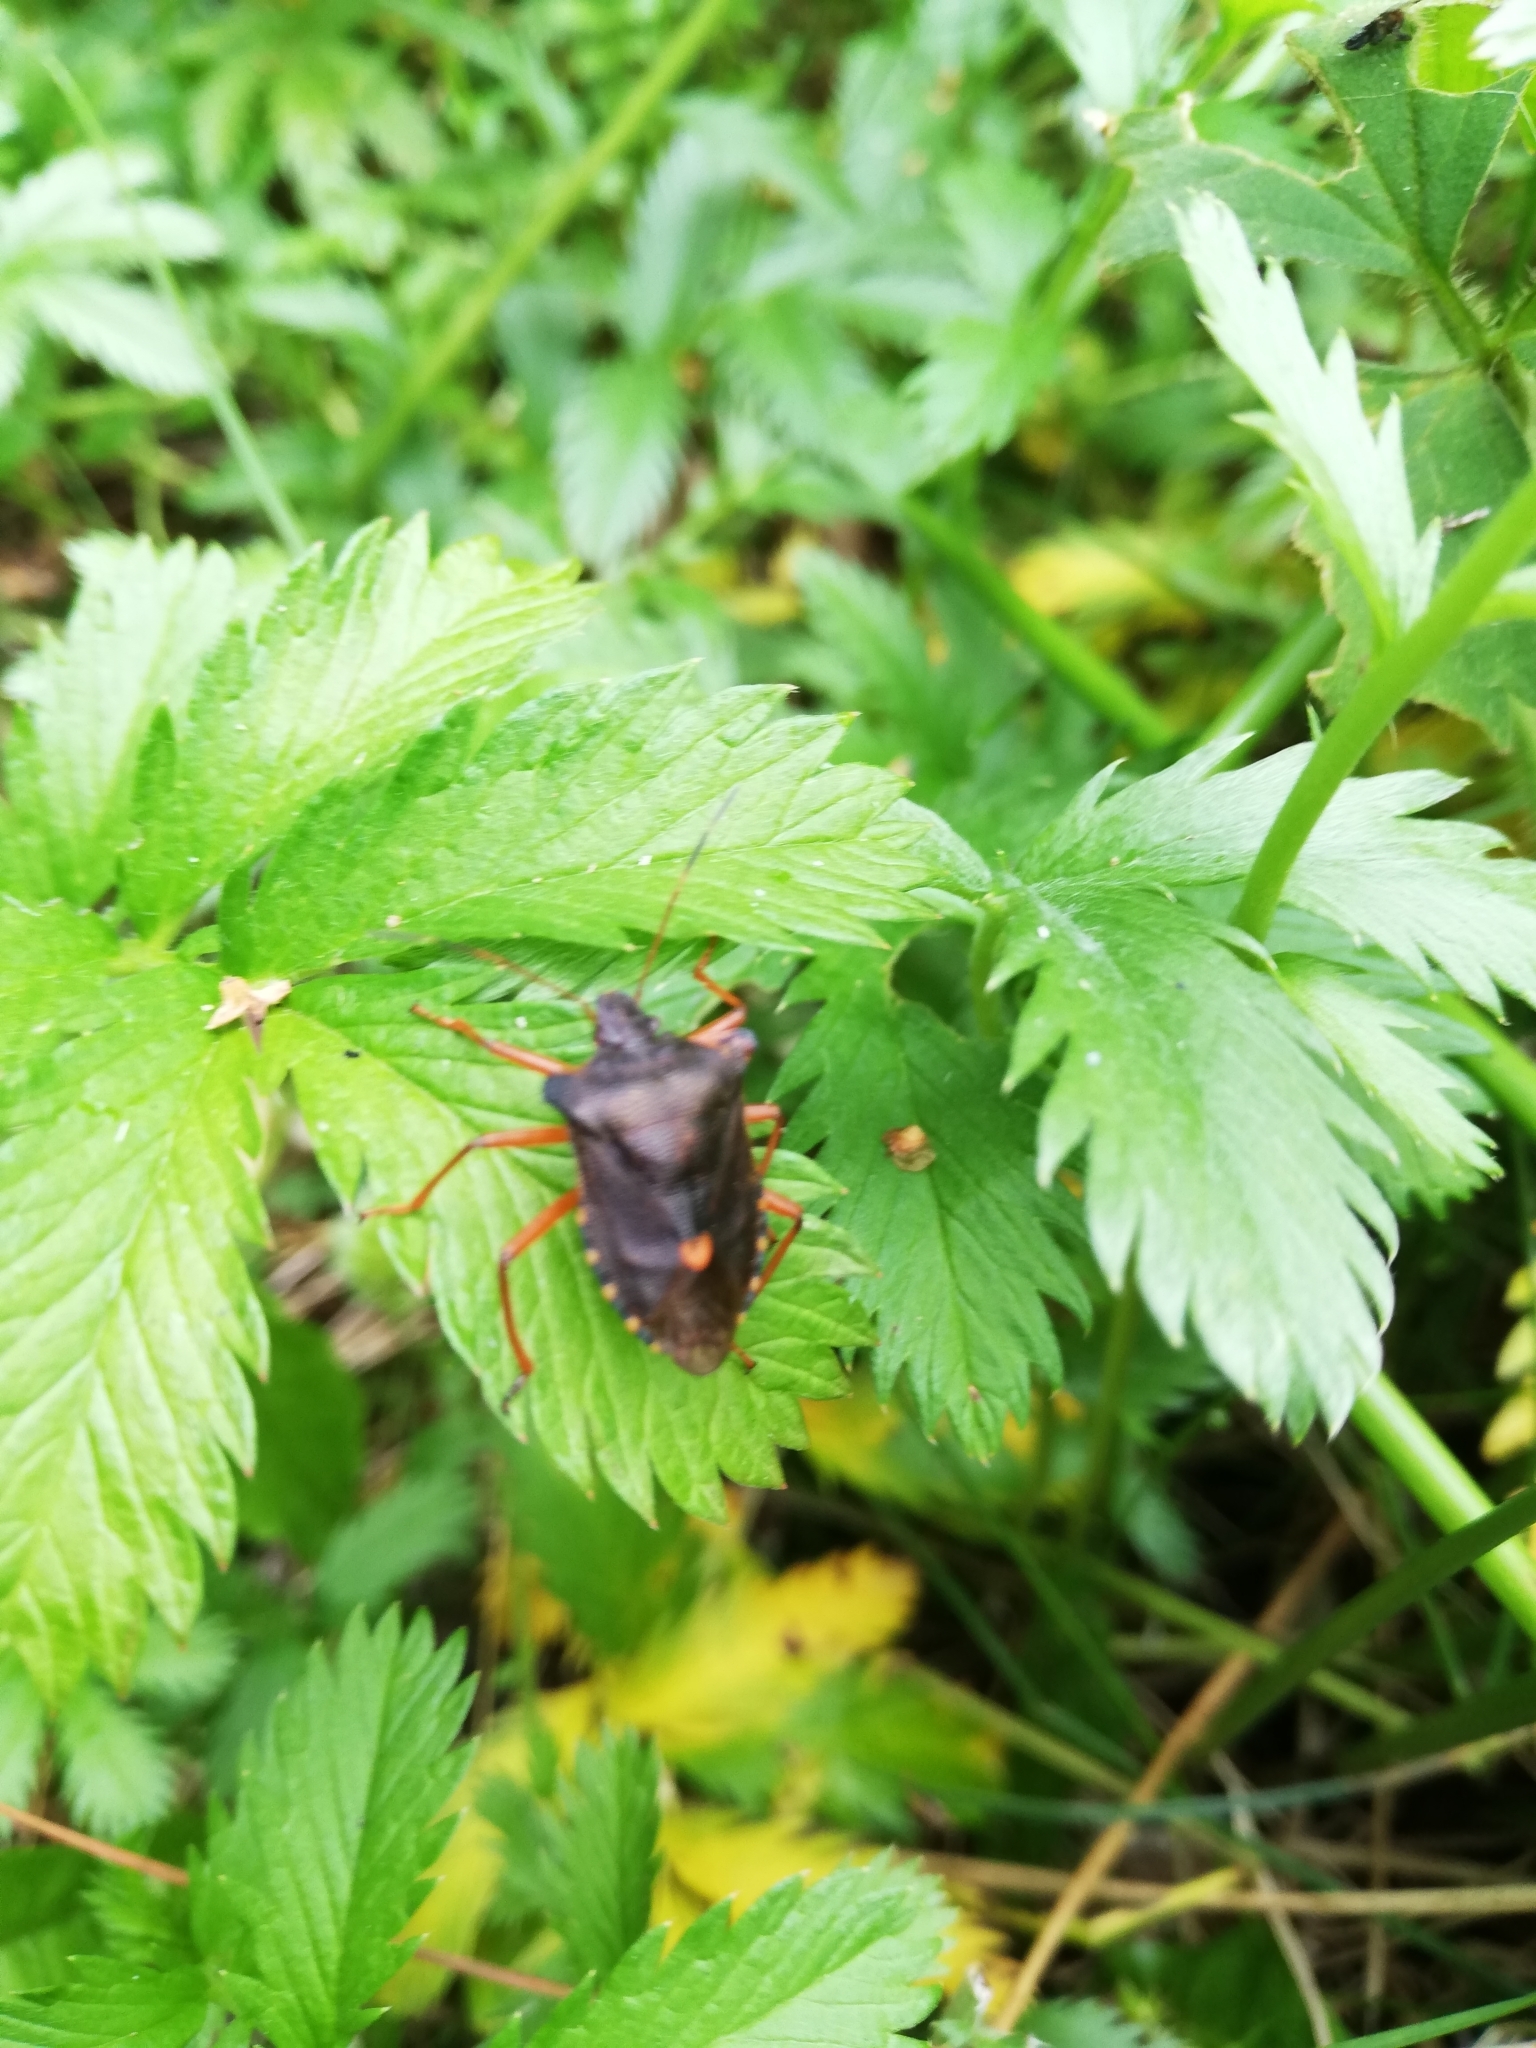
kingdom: Animalia
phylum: Arthropoda
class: Insecta
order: Hemiptera
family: Pentatomidae
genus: Pentatoma
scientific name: Pentatoma rufipes
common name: Forest bug
